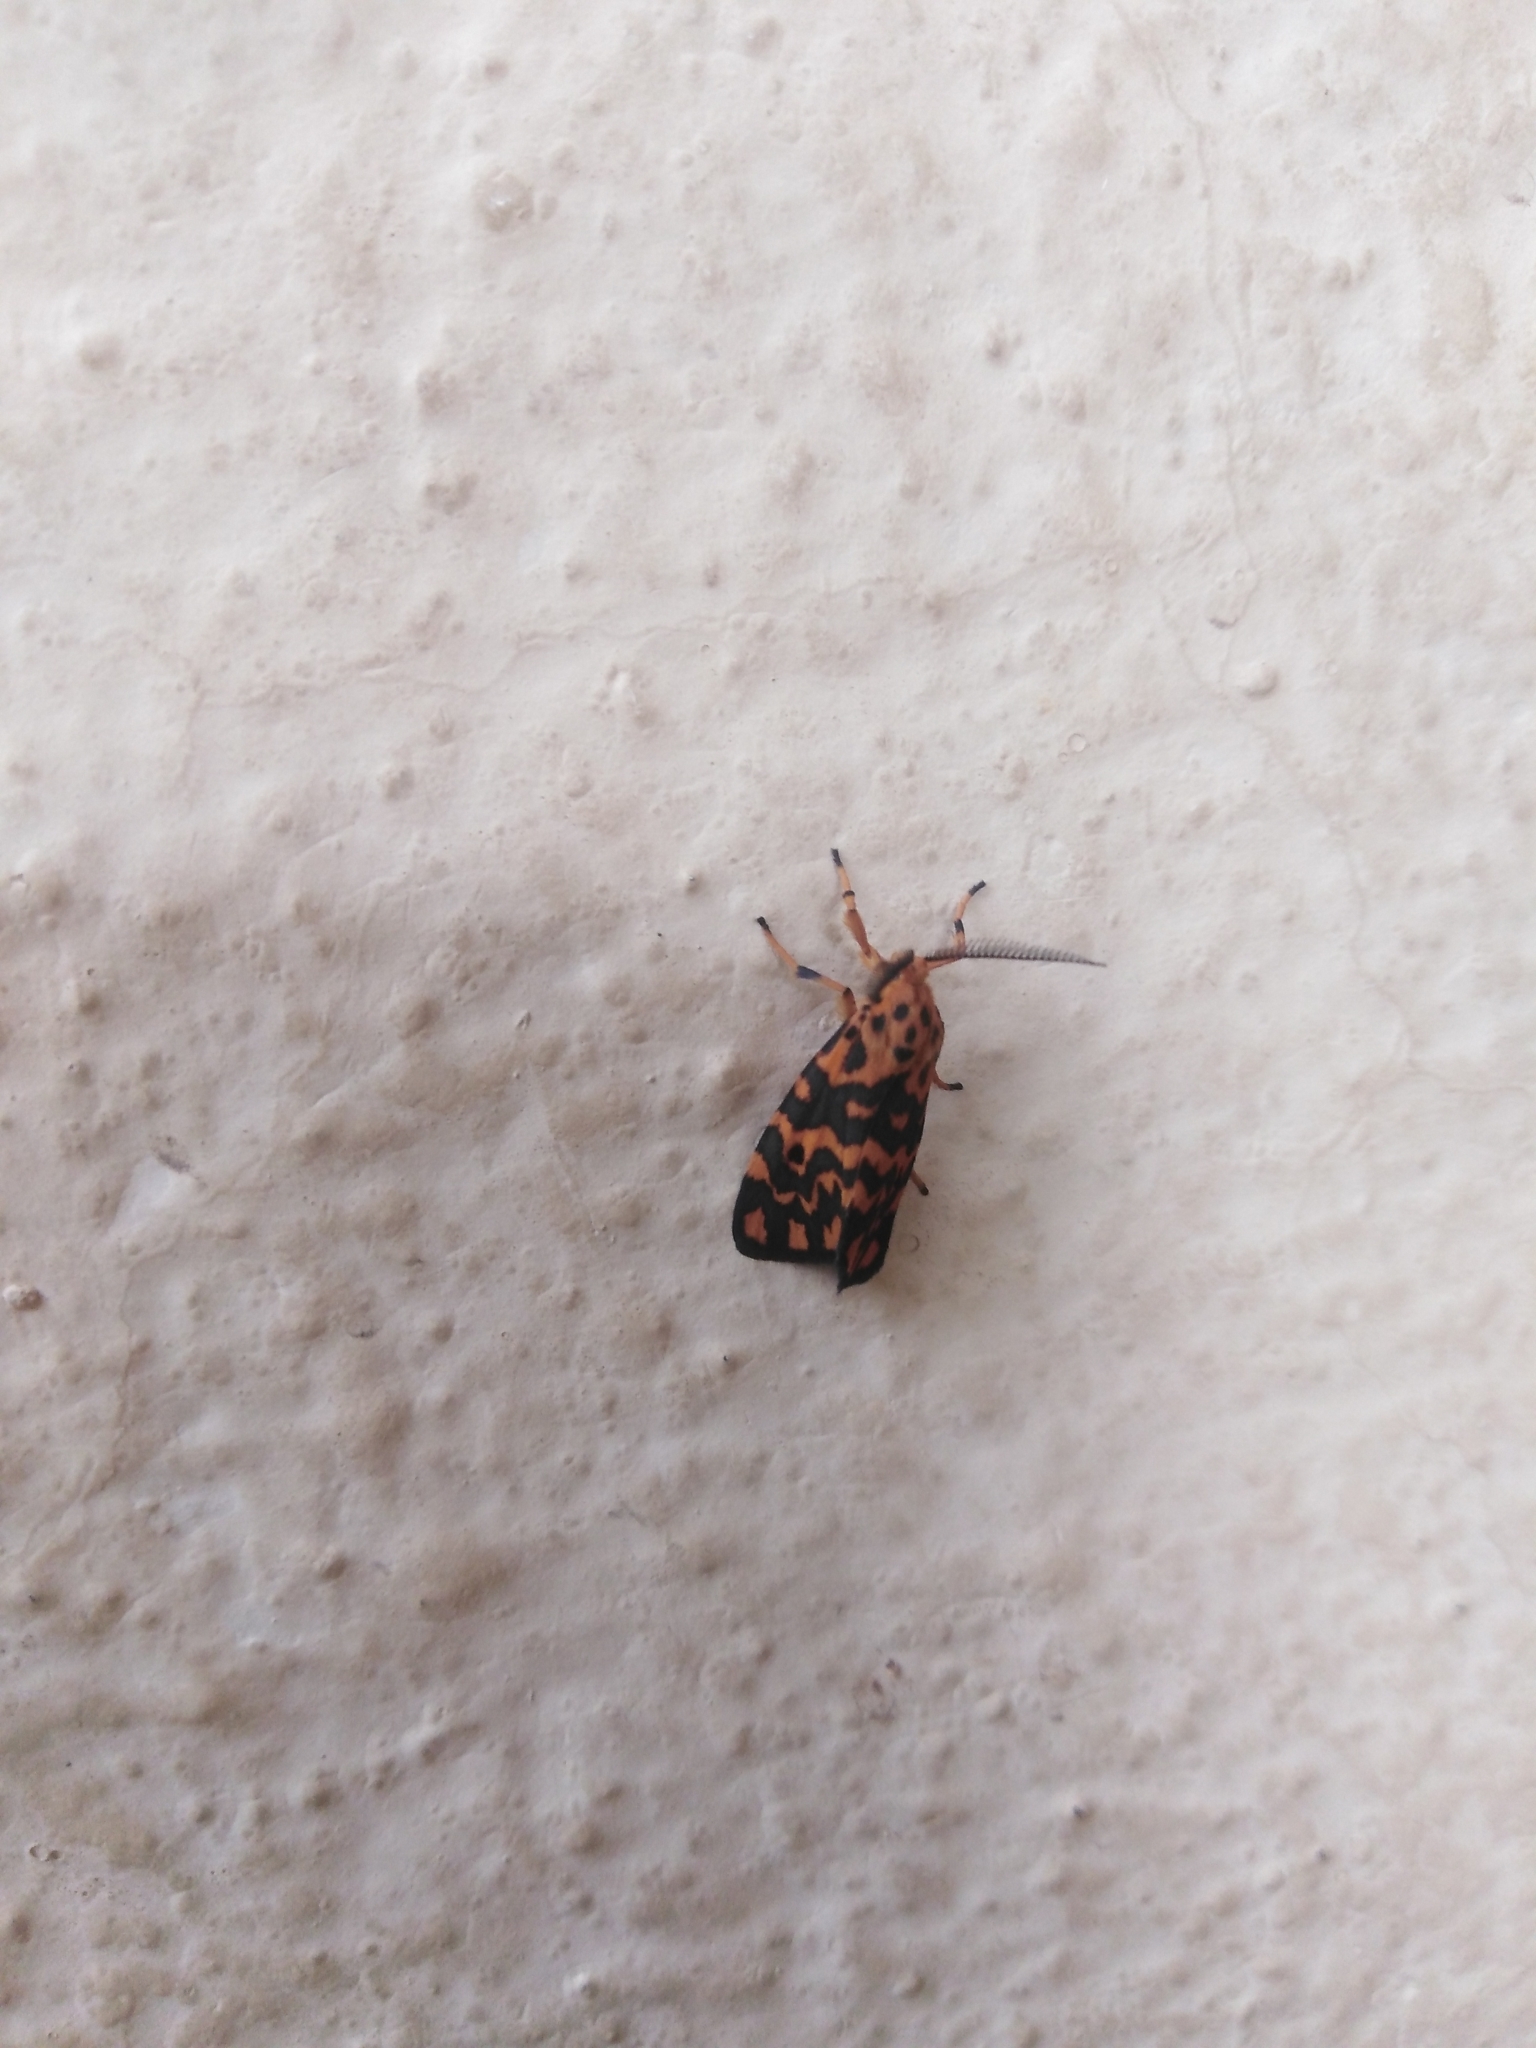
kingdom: Animalia
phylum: Arthropoda
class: Insecta
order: Lepidoptera
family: Erebidae
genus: Nepita
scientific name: Nepita conferta
